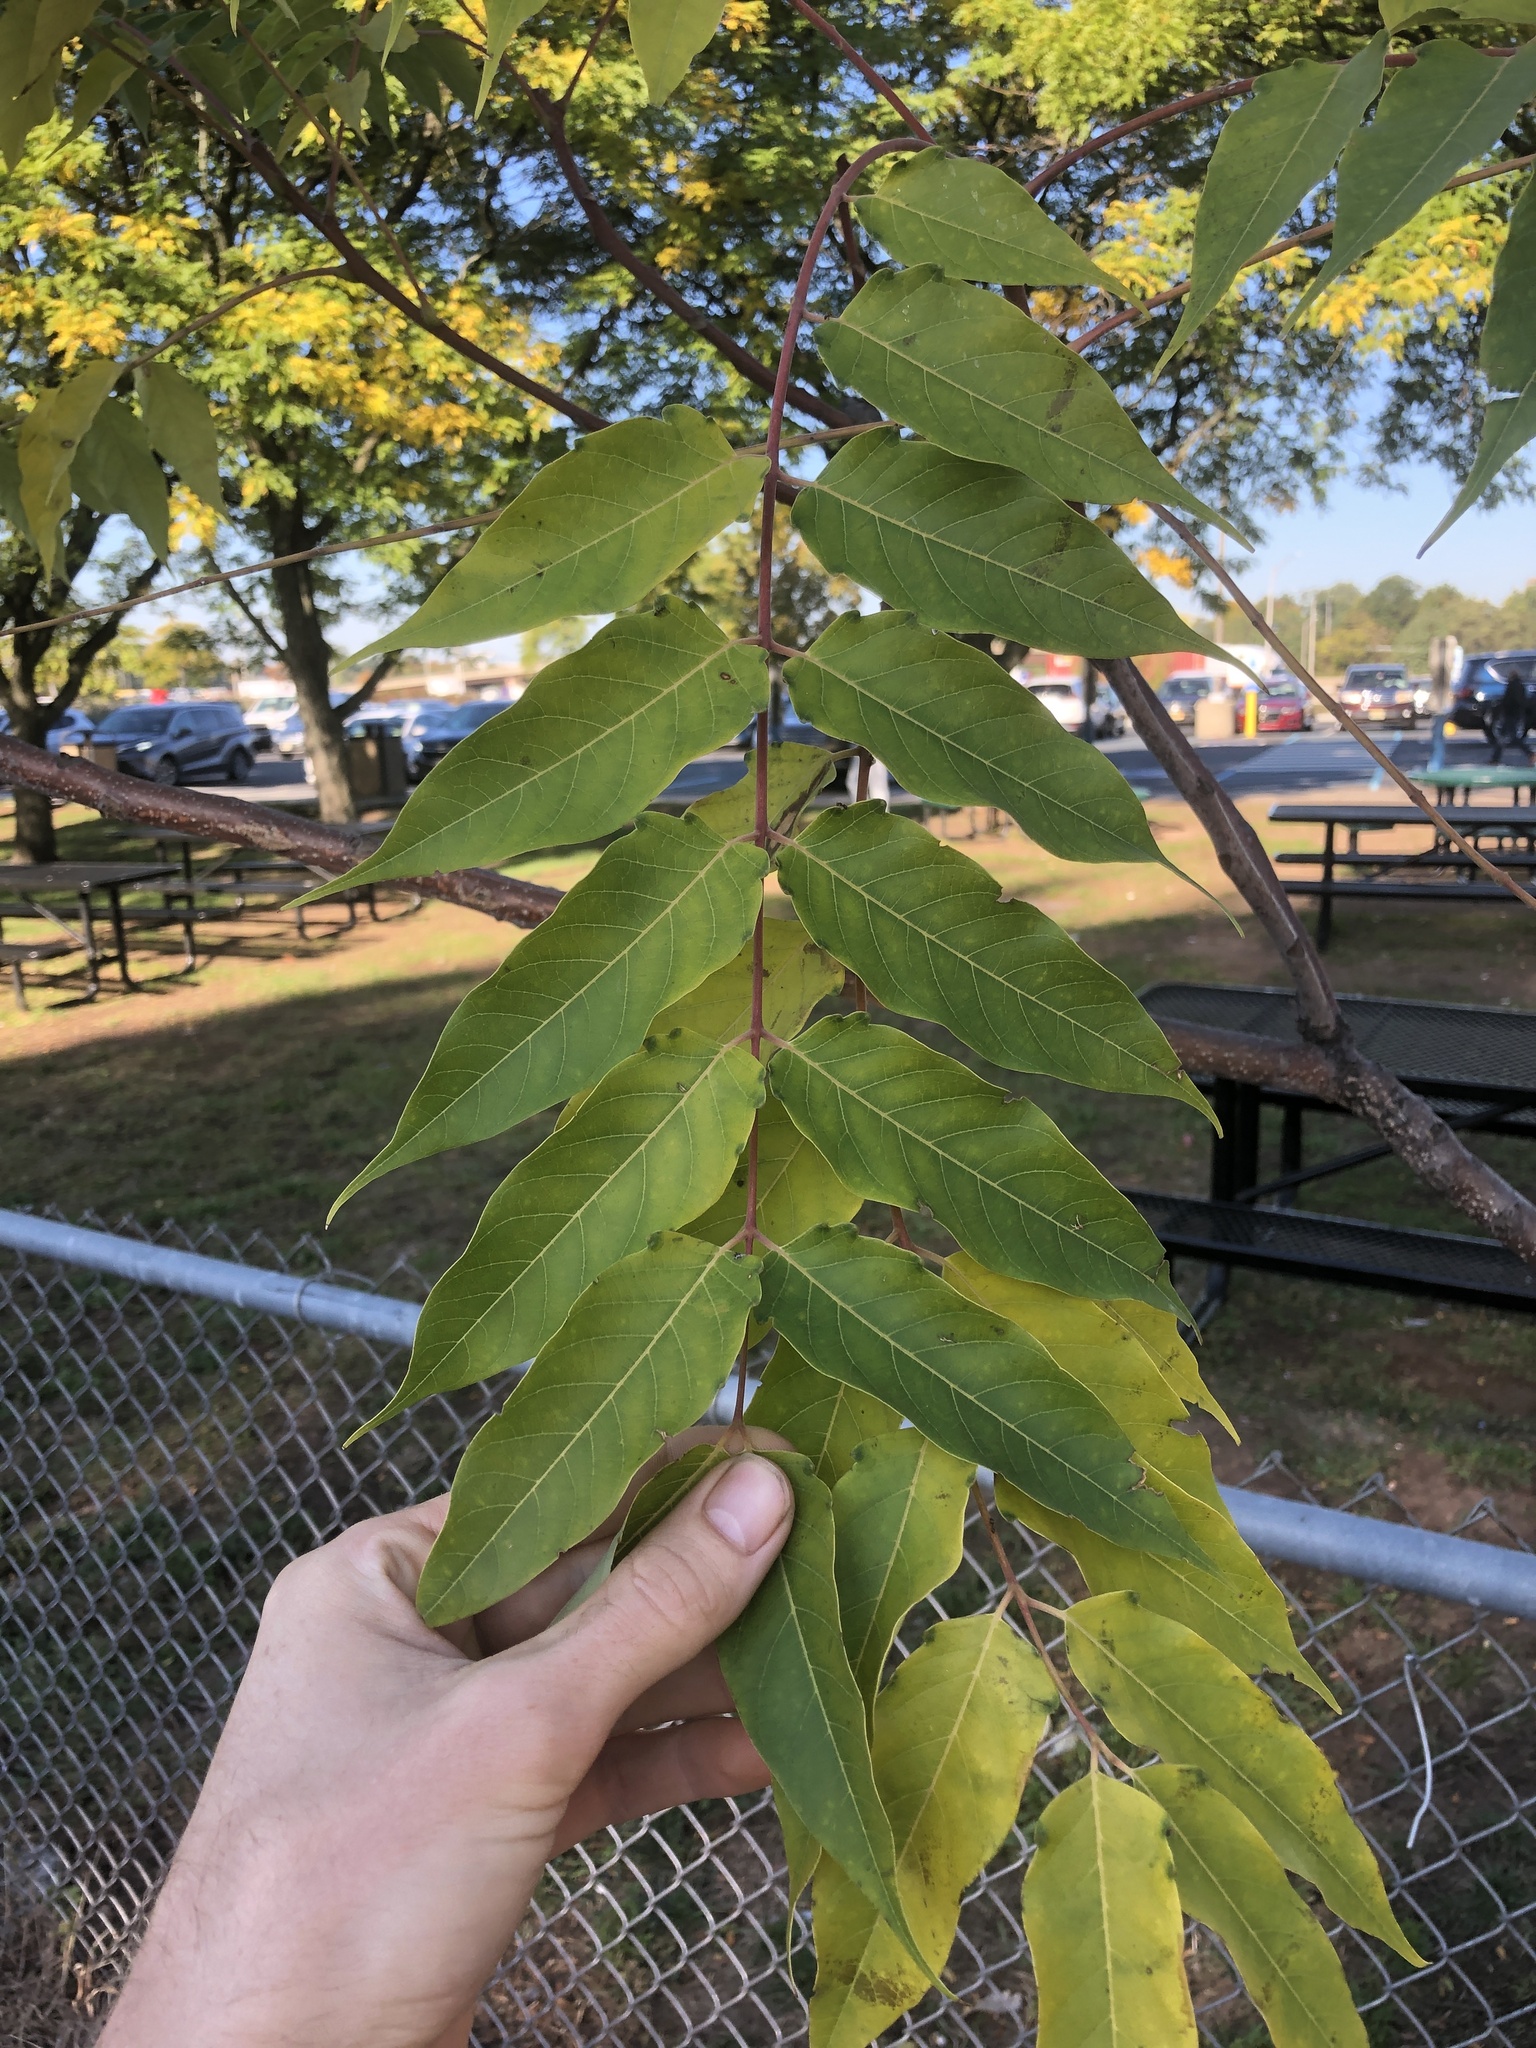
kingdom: Plantae
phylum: Tracheophyta
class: Magnoliopsida
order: Sapindales
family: Simaroubaceae
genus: Ailanthus
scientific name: Ailanthus altissima
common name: Tree-of-heaven
